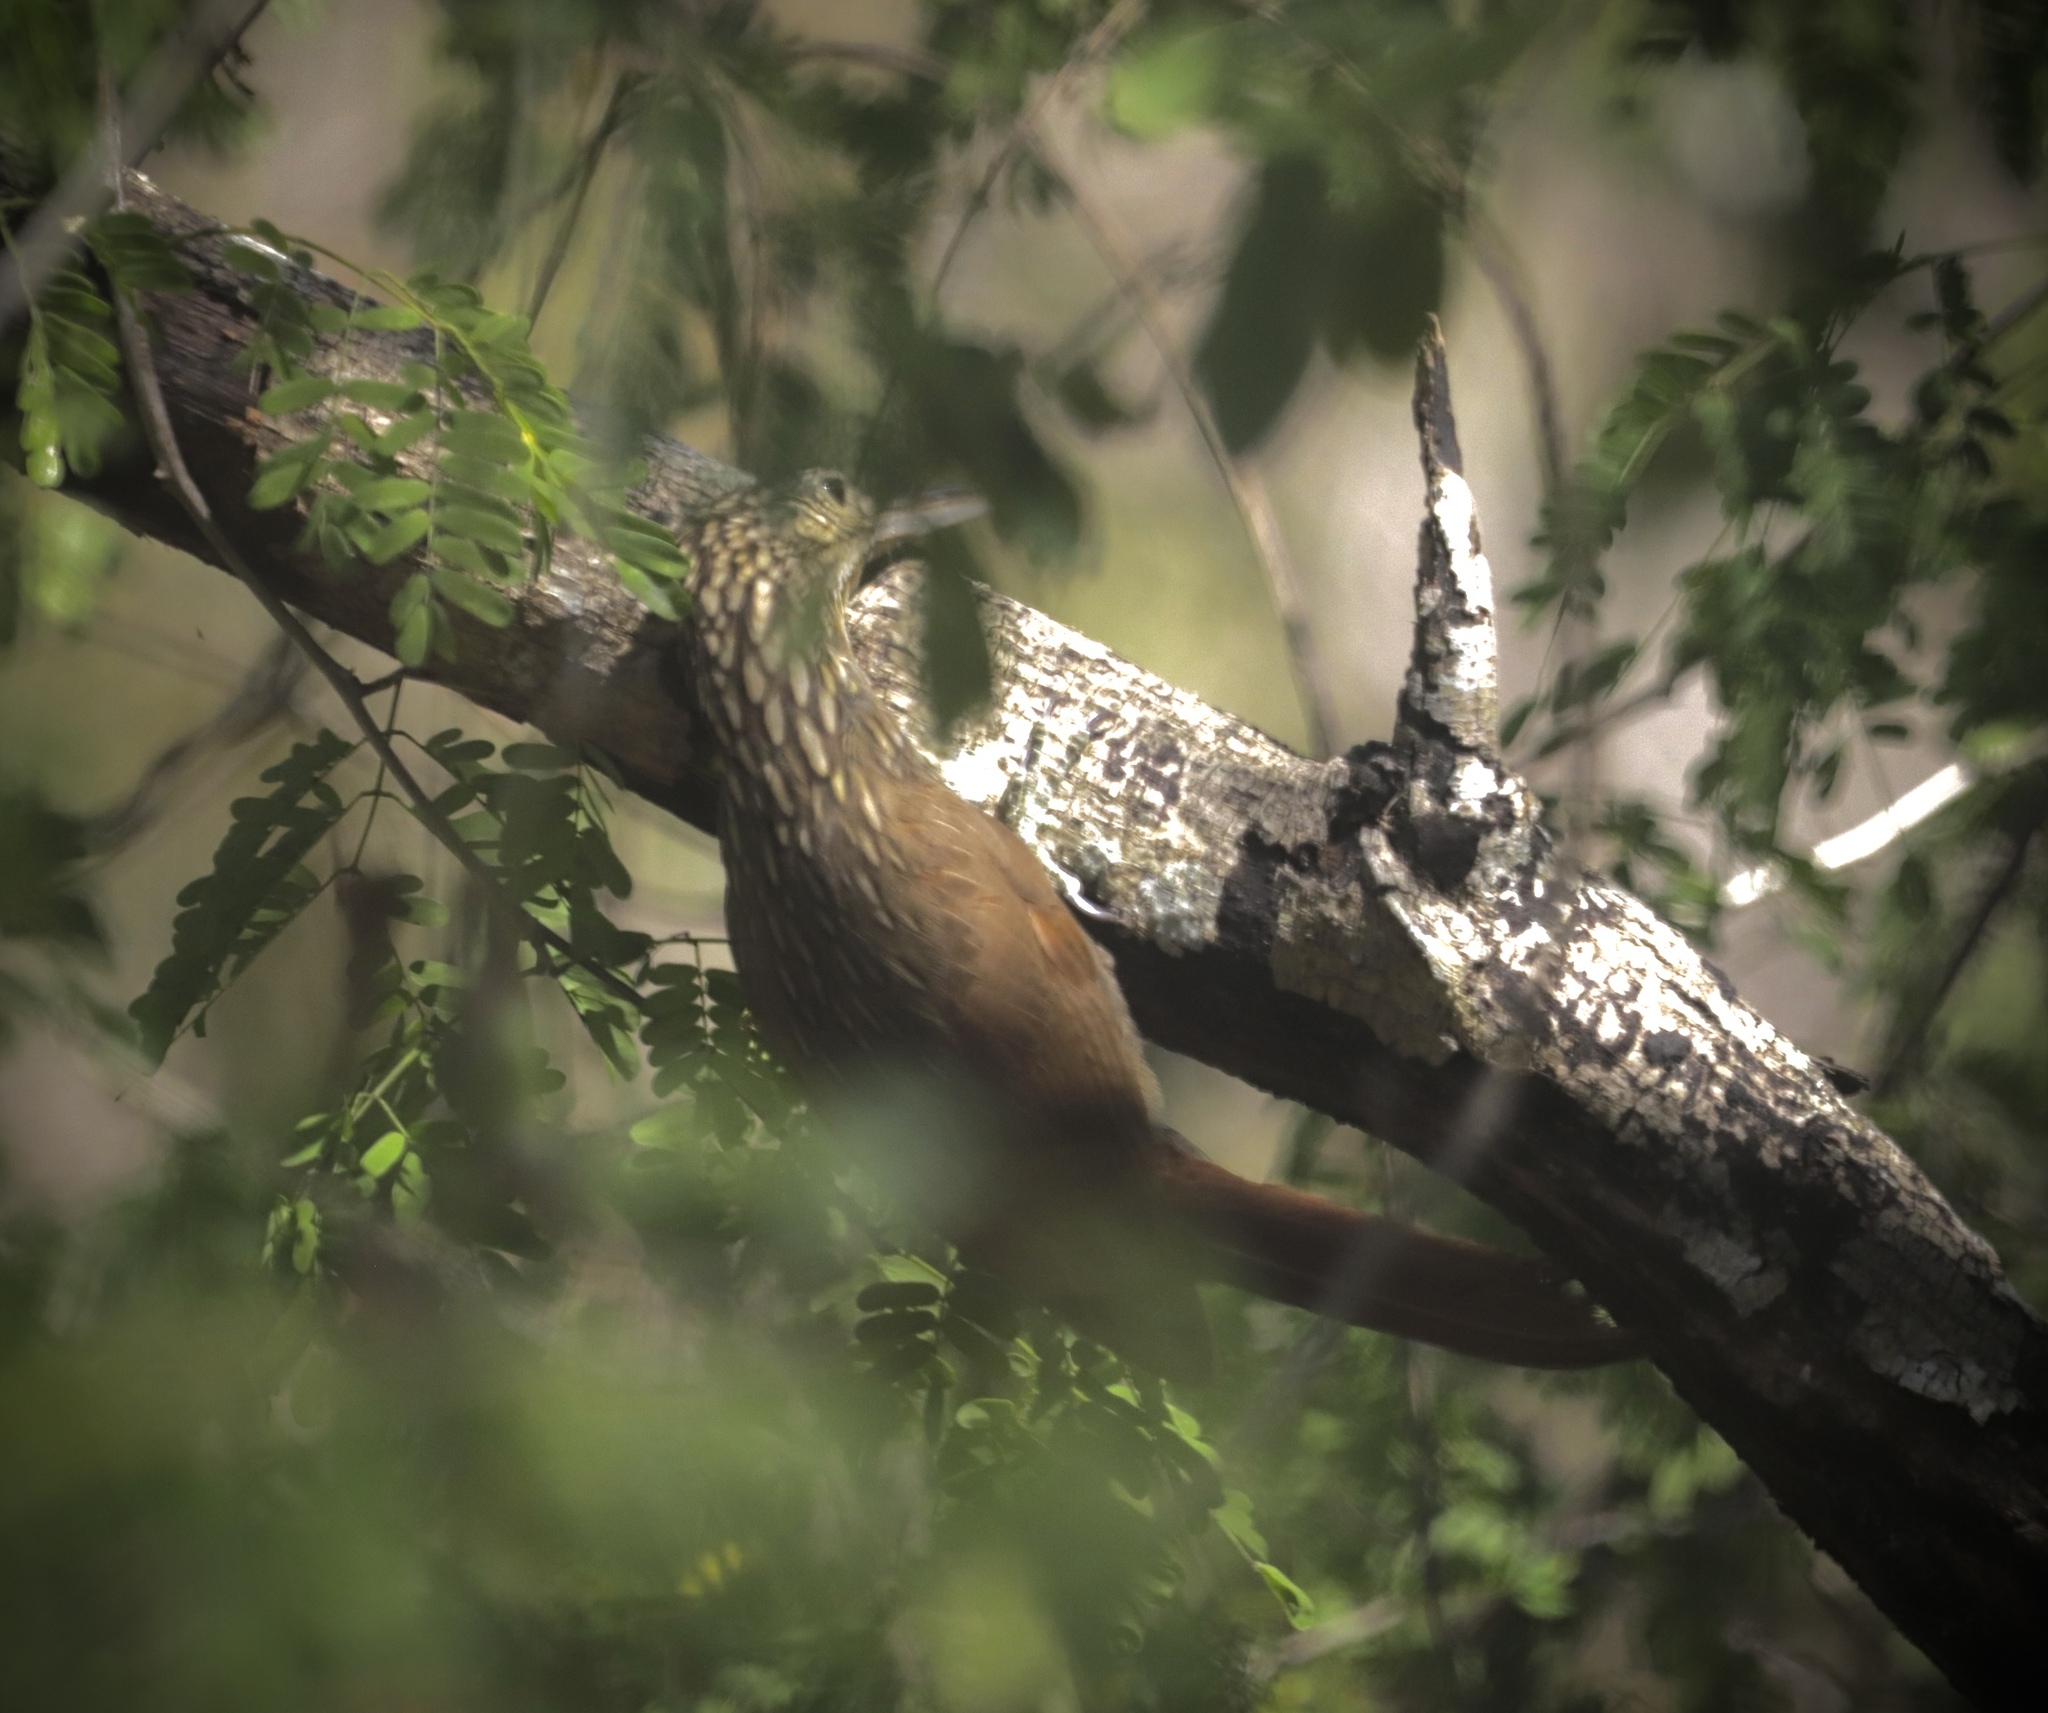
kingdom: Animalia
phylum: Chordata
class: Aves
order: Passeriformes
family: Furnariidae
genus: Xiphorhynchus
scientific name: Xiphorhynchus flavigaster
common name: Ivory-billed woodcreeper
